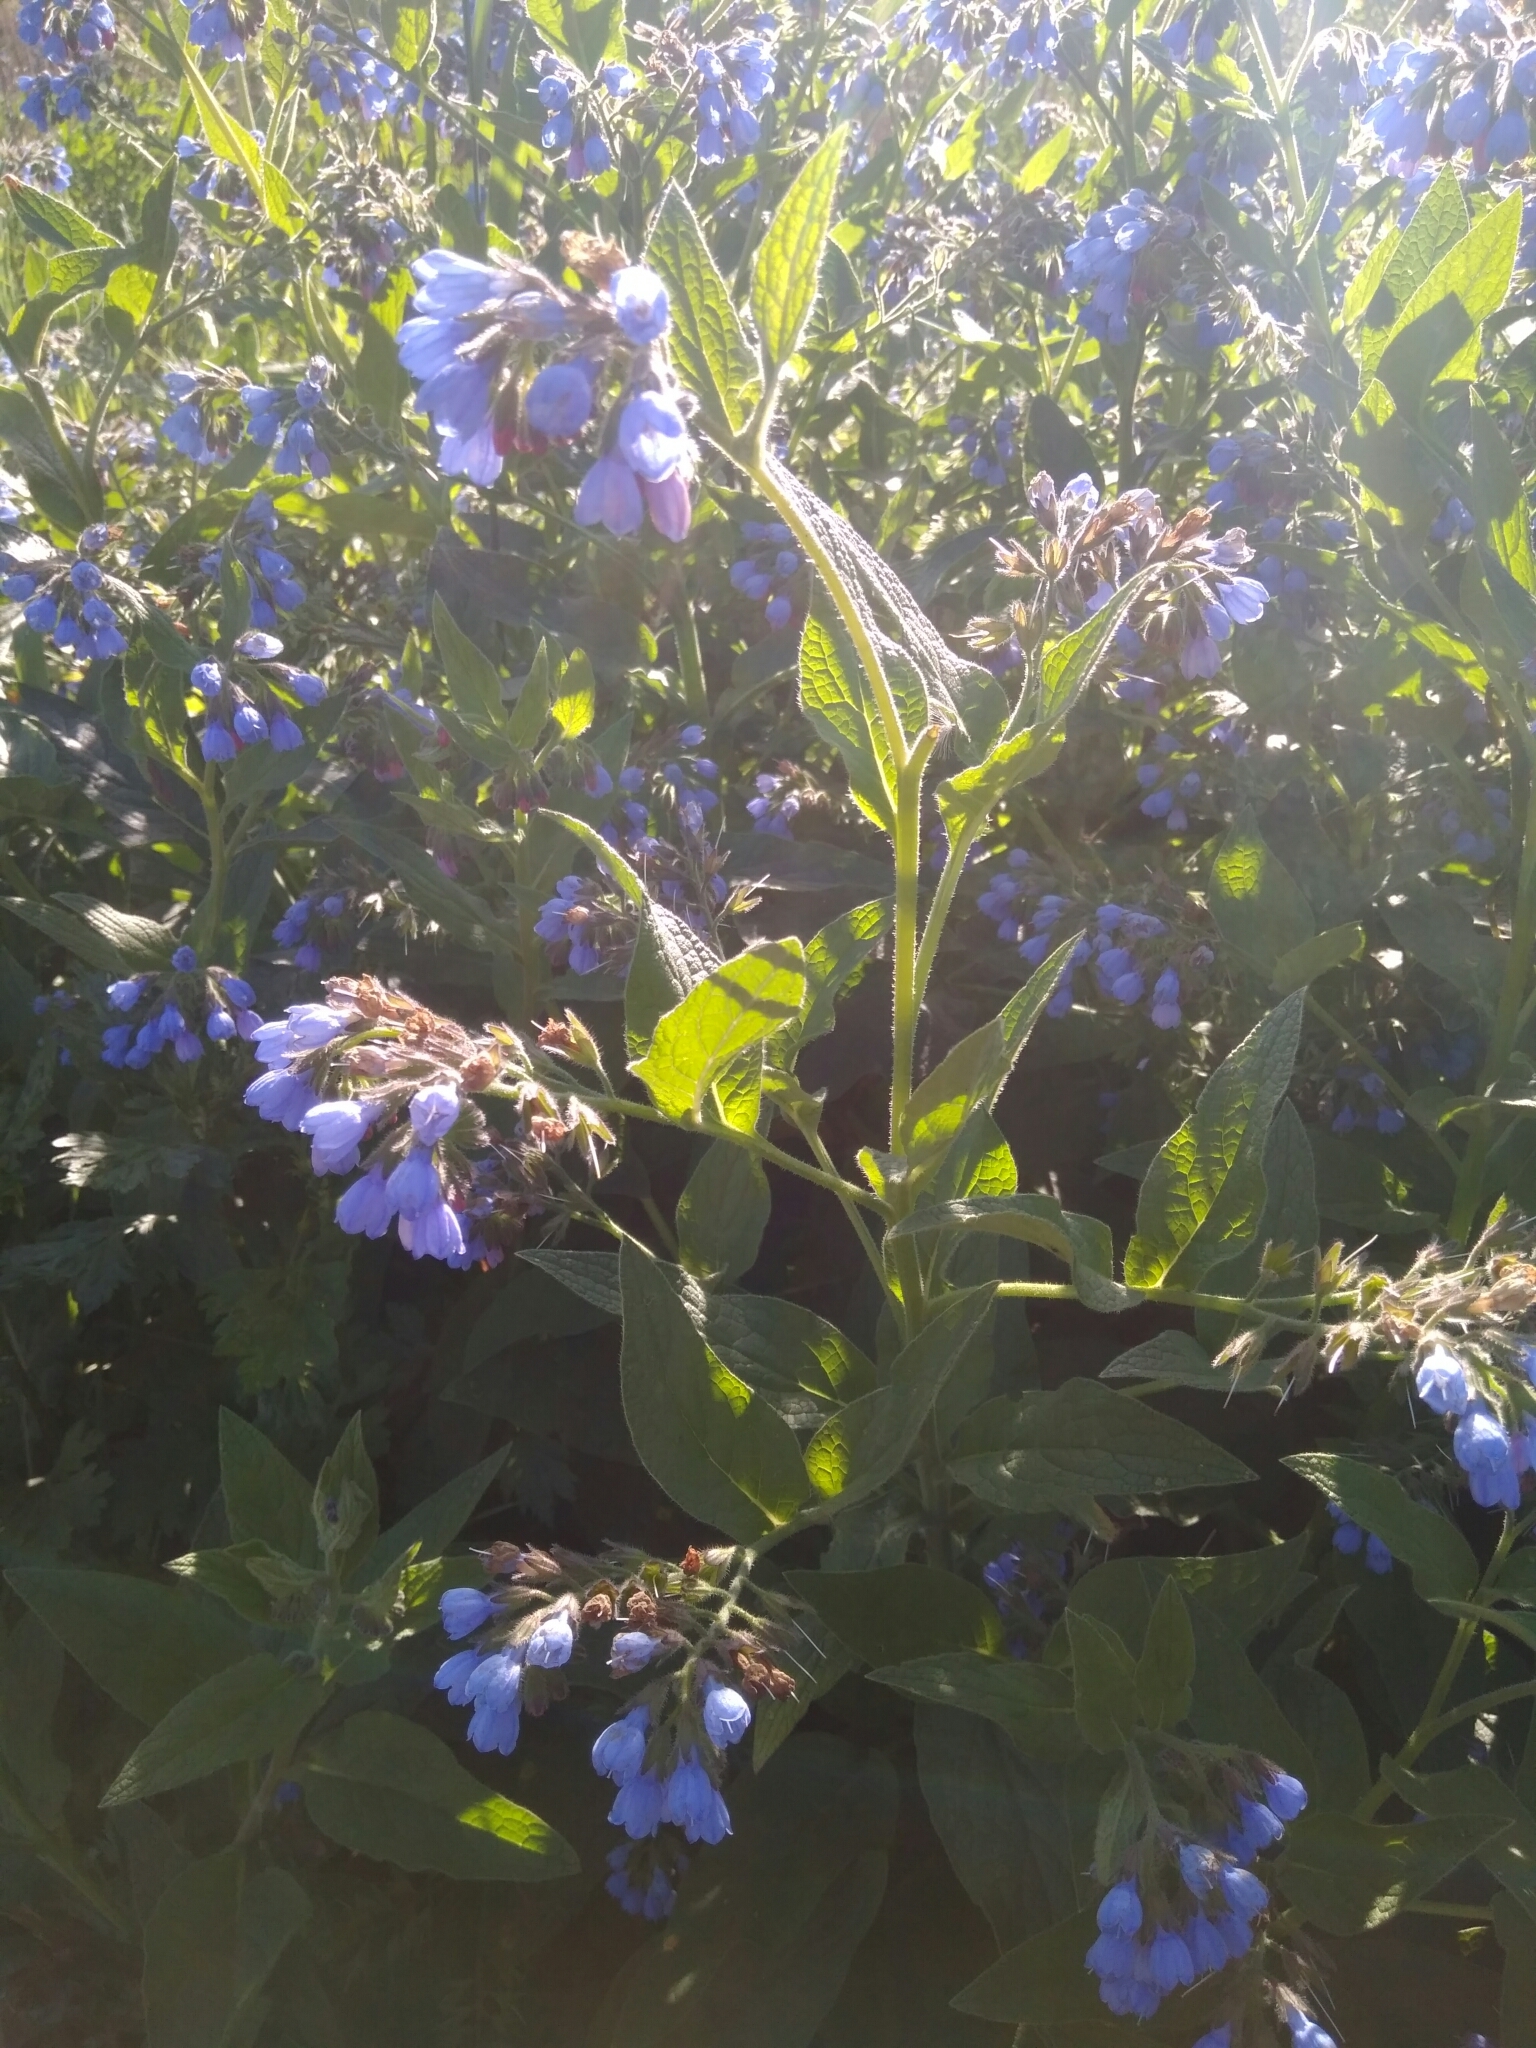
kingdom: Plantae
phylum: Tracheophyta
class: Magnoliopsida
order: Boraginales
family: Boraginaceae
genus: Symphytum
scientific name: Symphytum caucasicum
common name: Caucasian comfrey
